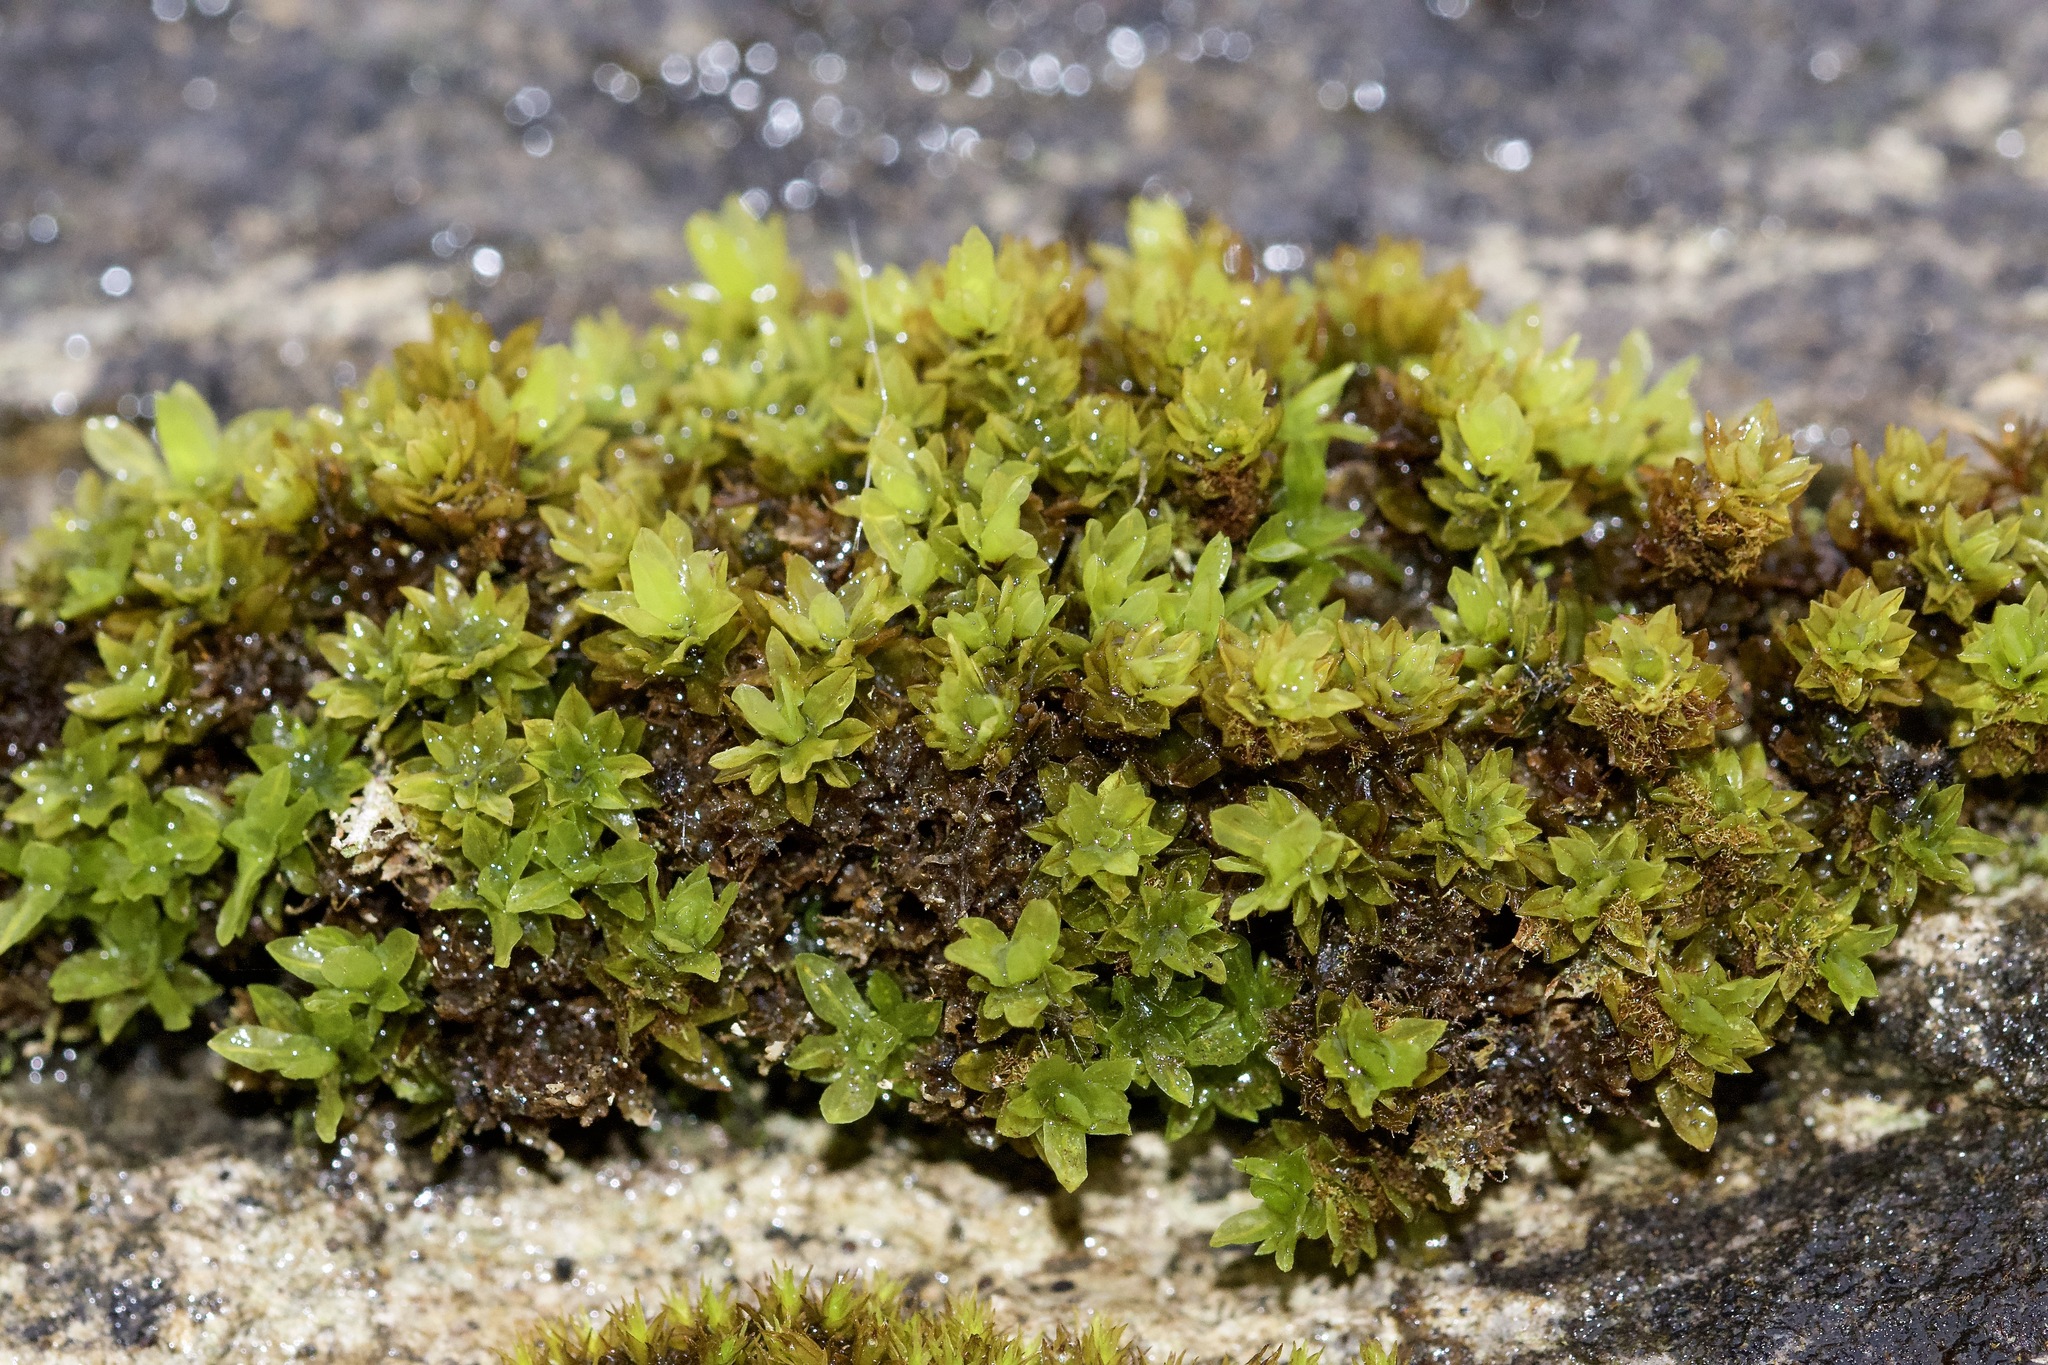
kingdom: Plantae
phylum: Bryophyta
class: Bryopsida
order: Encalyptales
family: Encalyptaceae
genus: Encalypta
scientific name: Encalypta procera
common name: Spiral extinguisher moss
